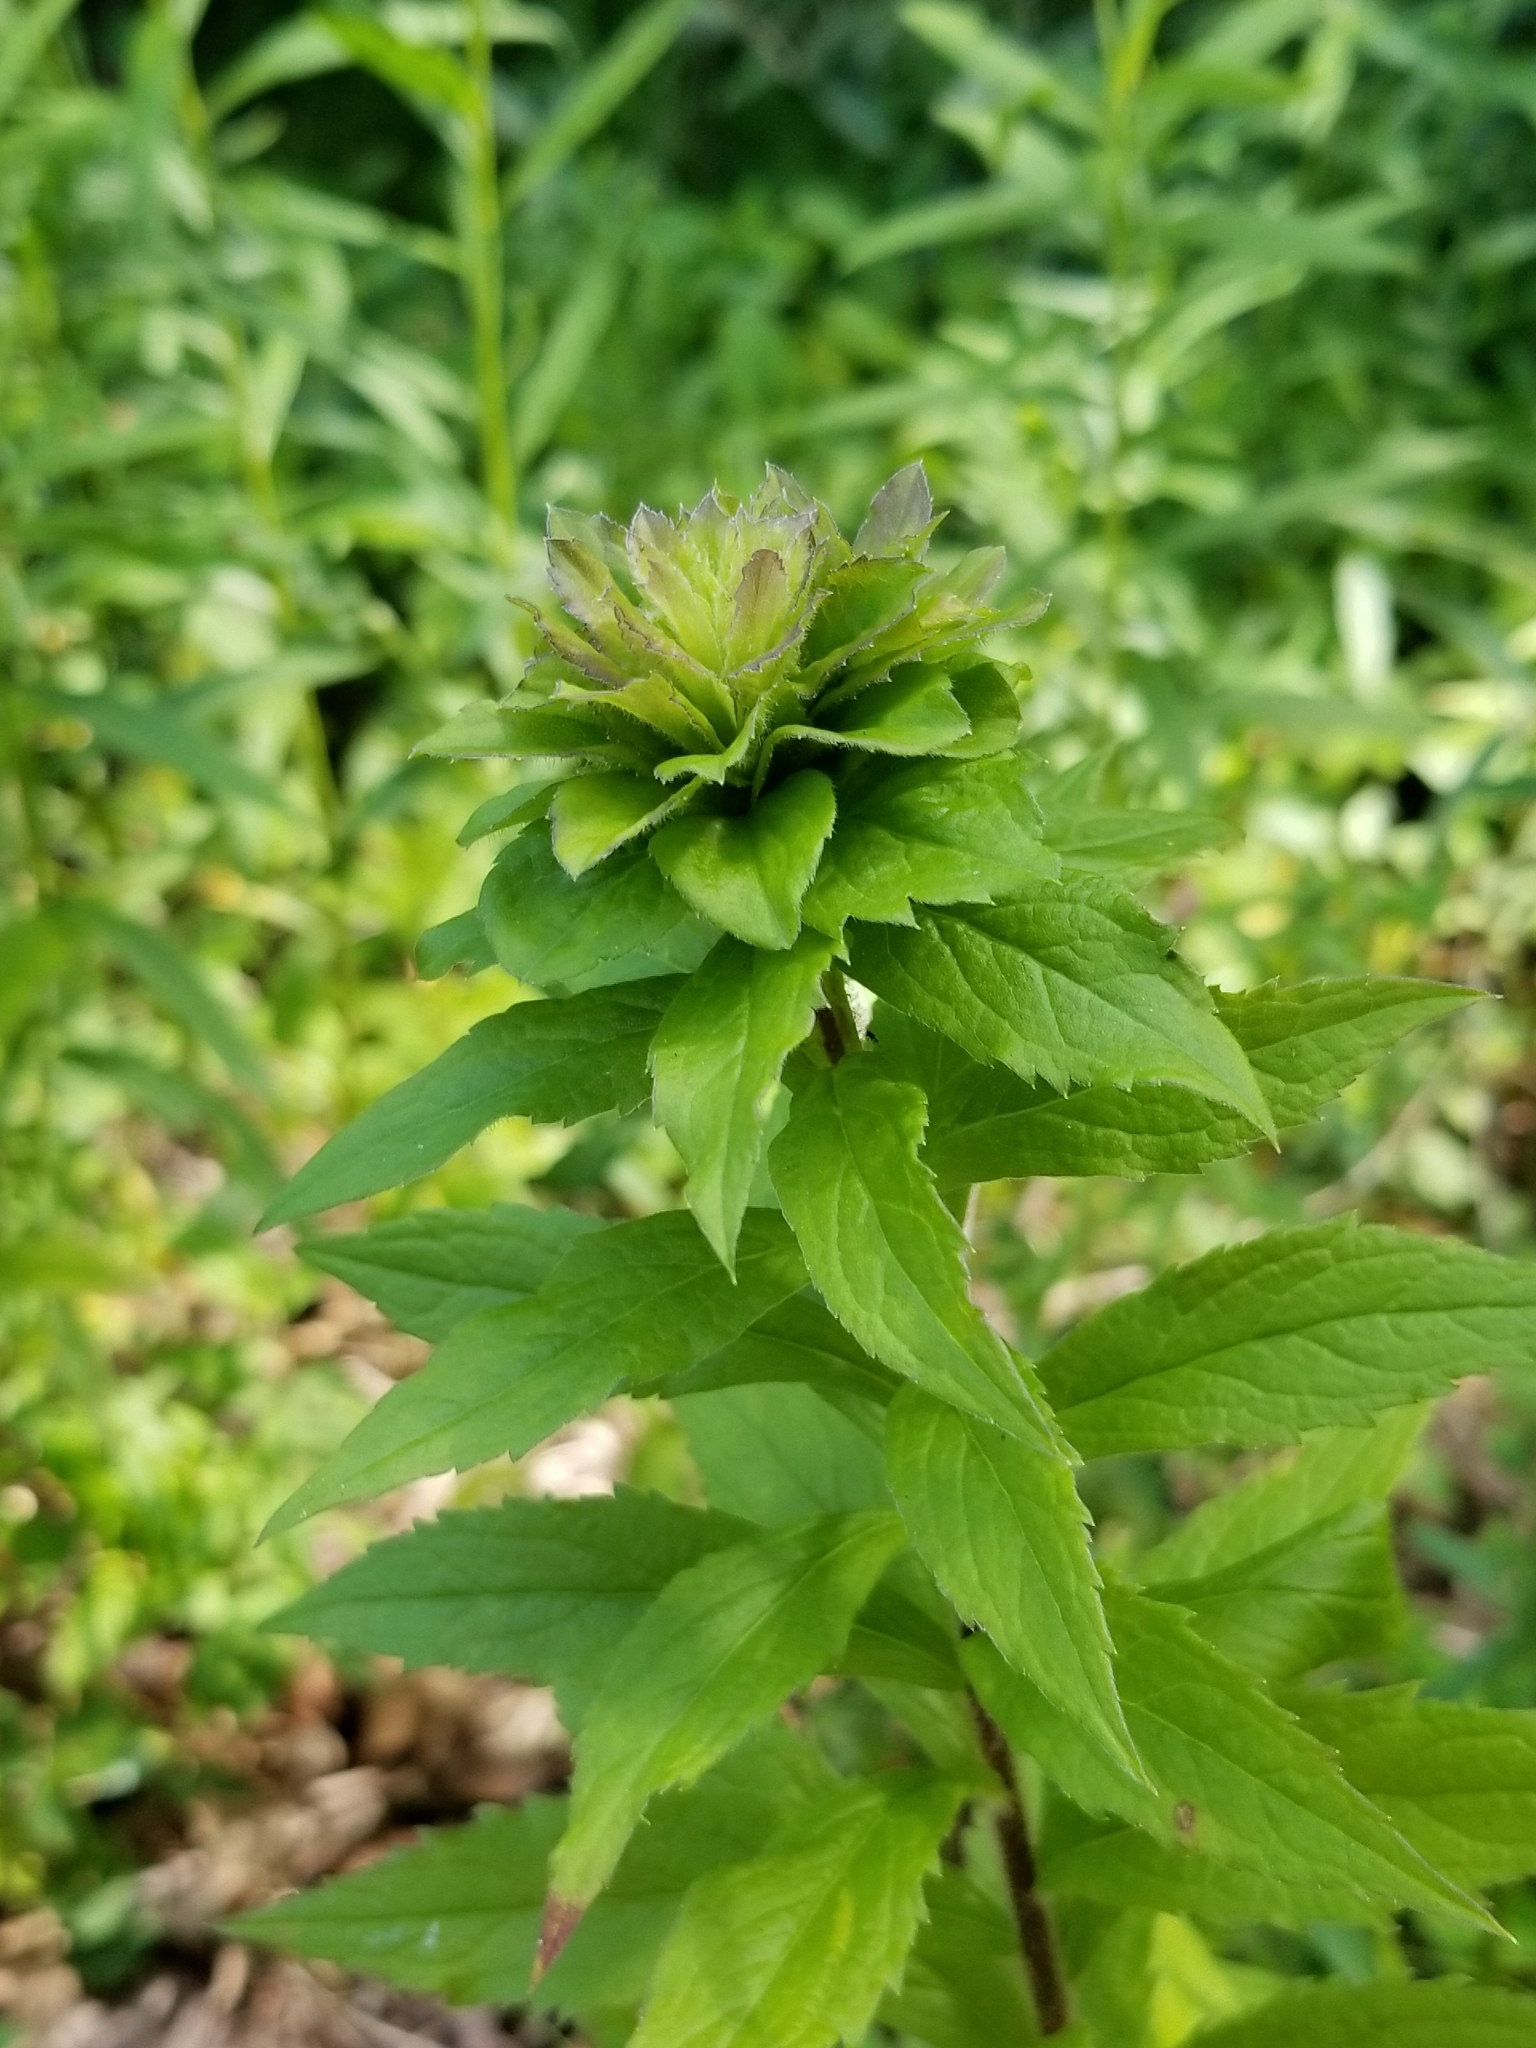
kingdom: Plantae
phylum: Tracheophyta
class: Magnoliopsida
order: Asterales
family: Asteraceae
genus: Solidago
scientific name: Solidago rugosa
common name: Rough-stemmed goldenrod
